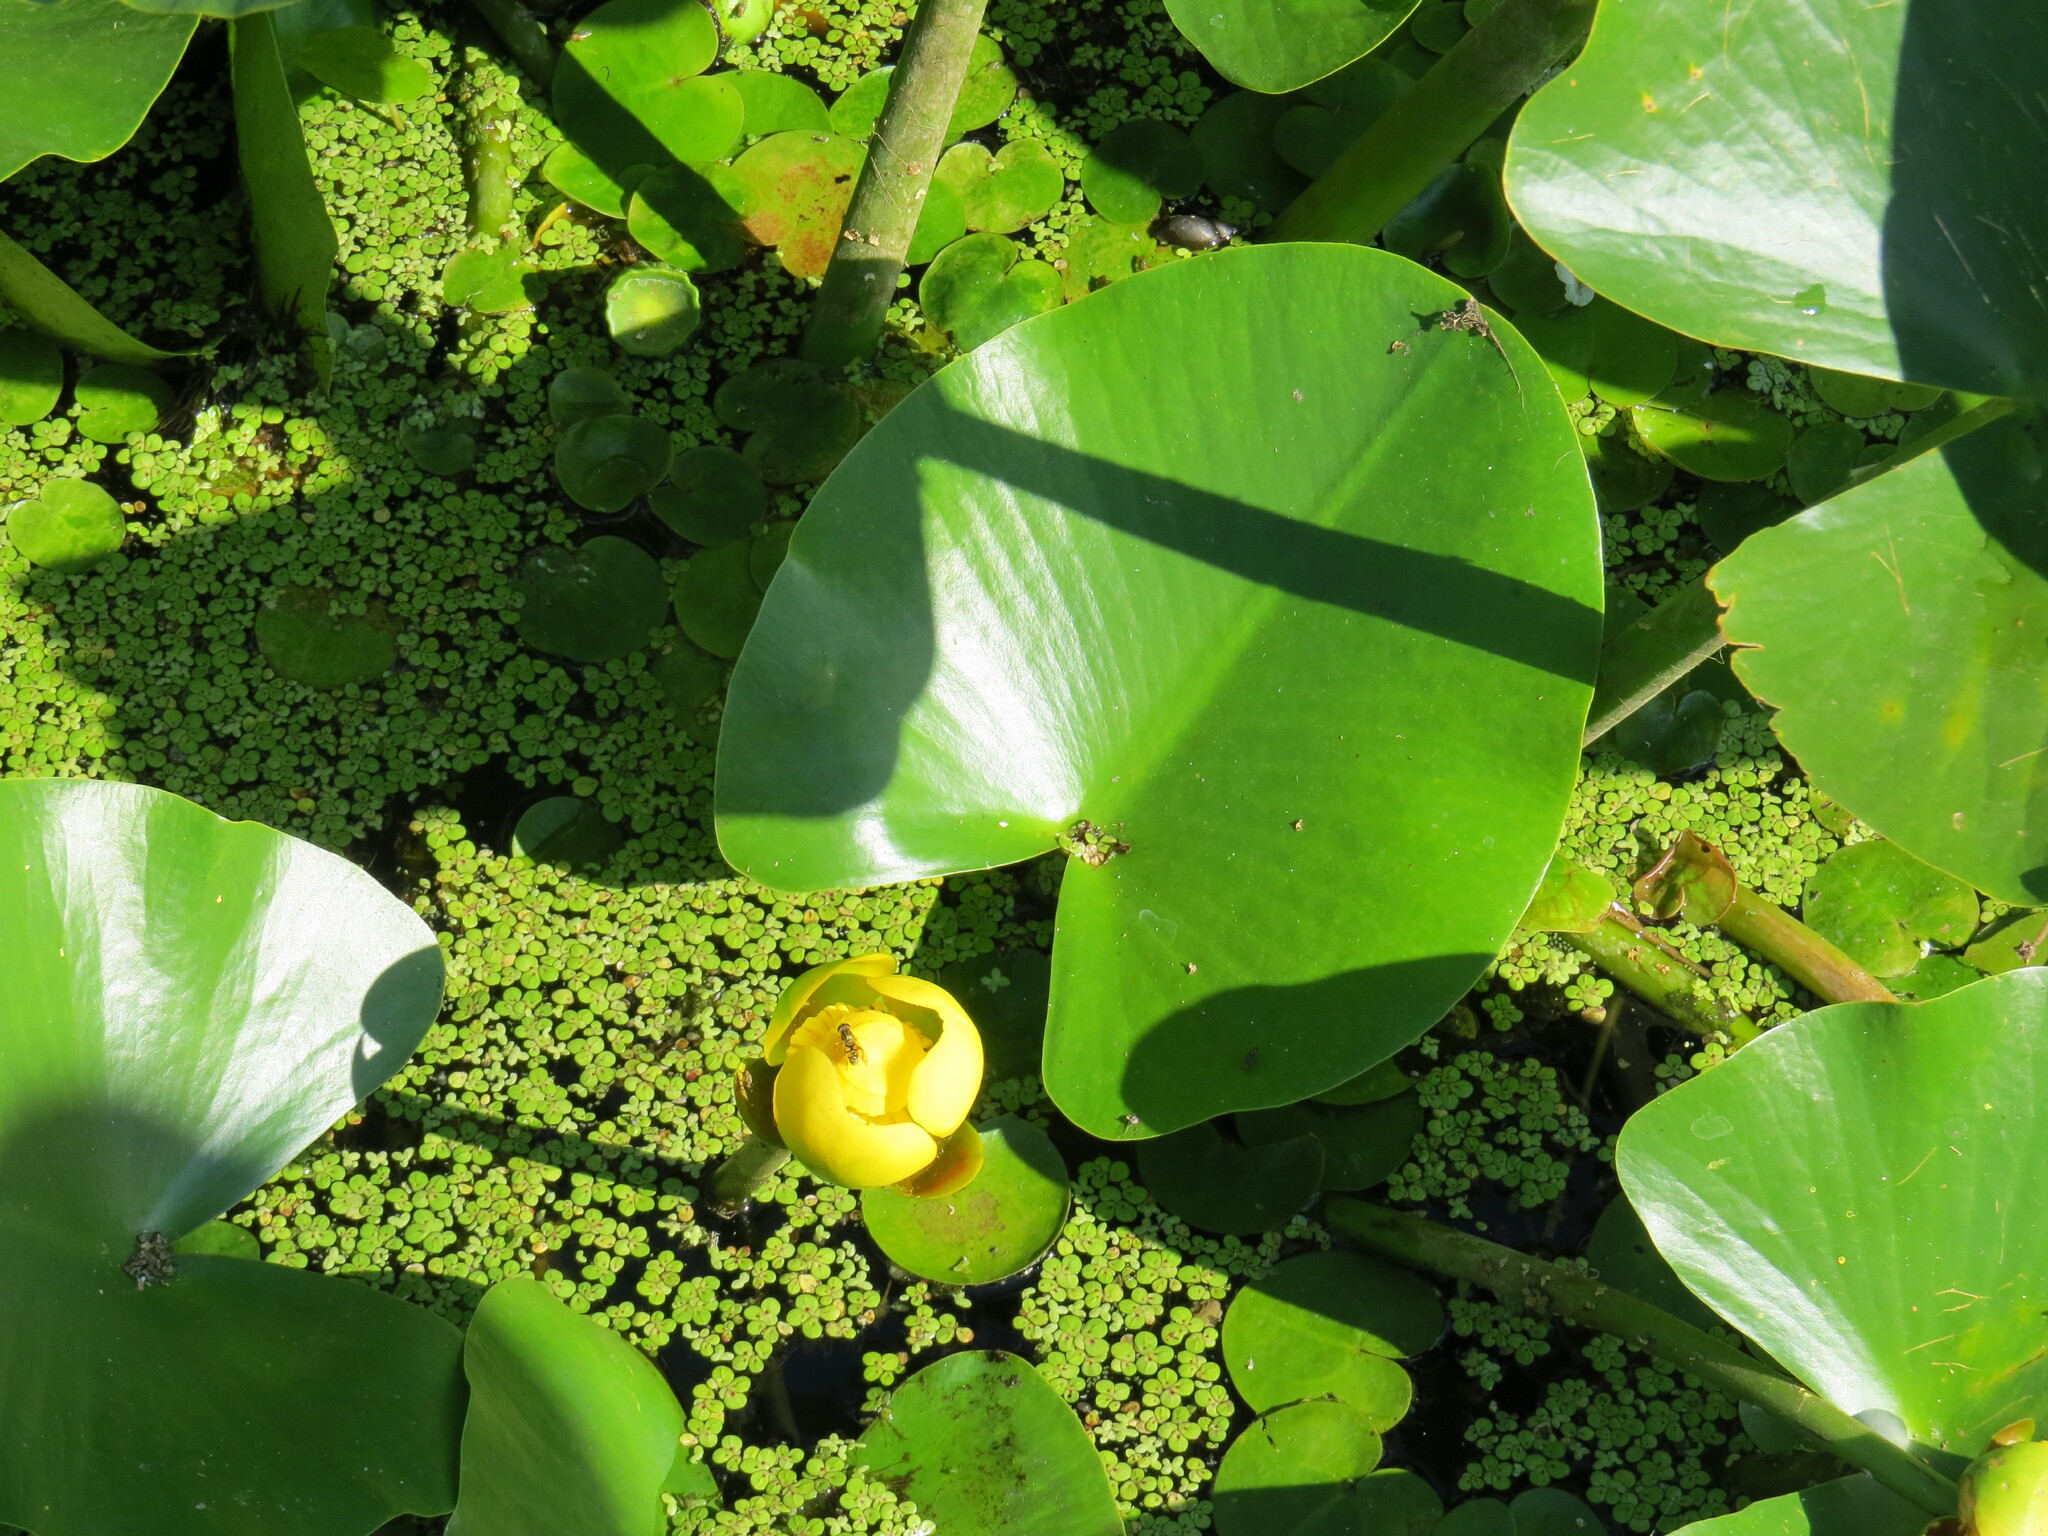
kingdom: Plantae
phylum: Tracheophyta
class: Magnoliopsida
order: Nymphaeales
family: Nymphaeaceae
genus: Nuphar
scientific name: Nuphar advena
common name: Spatter-dock
